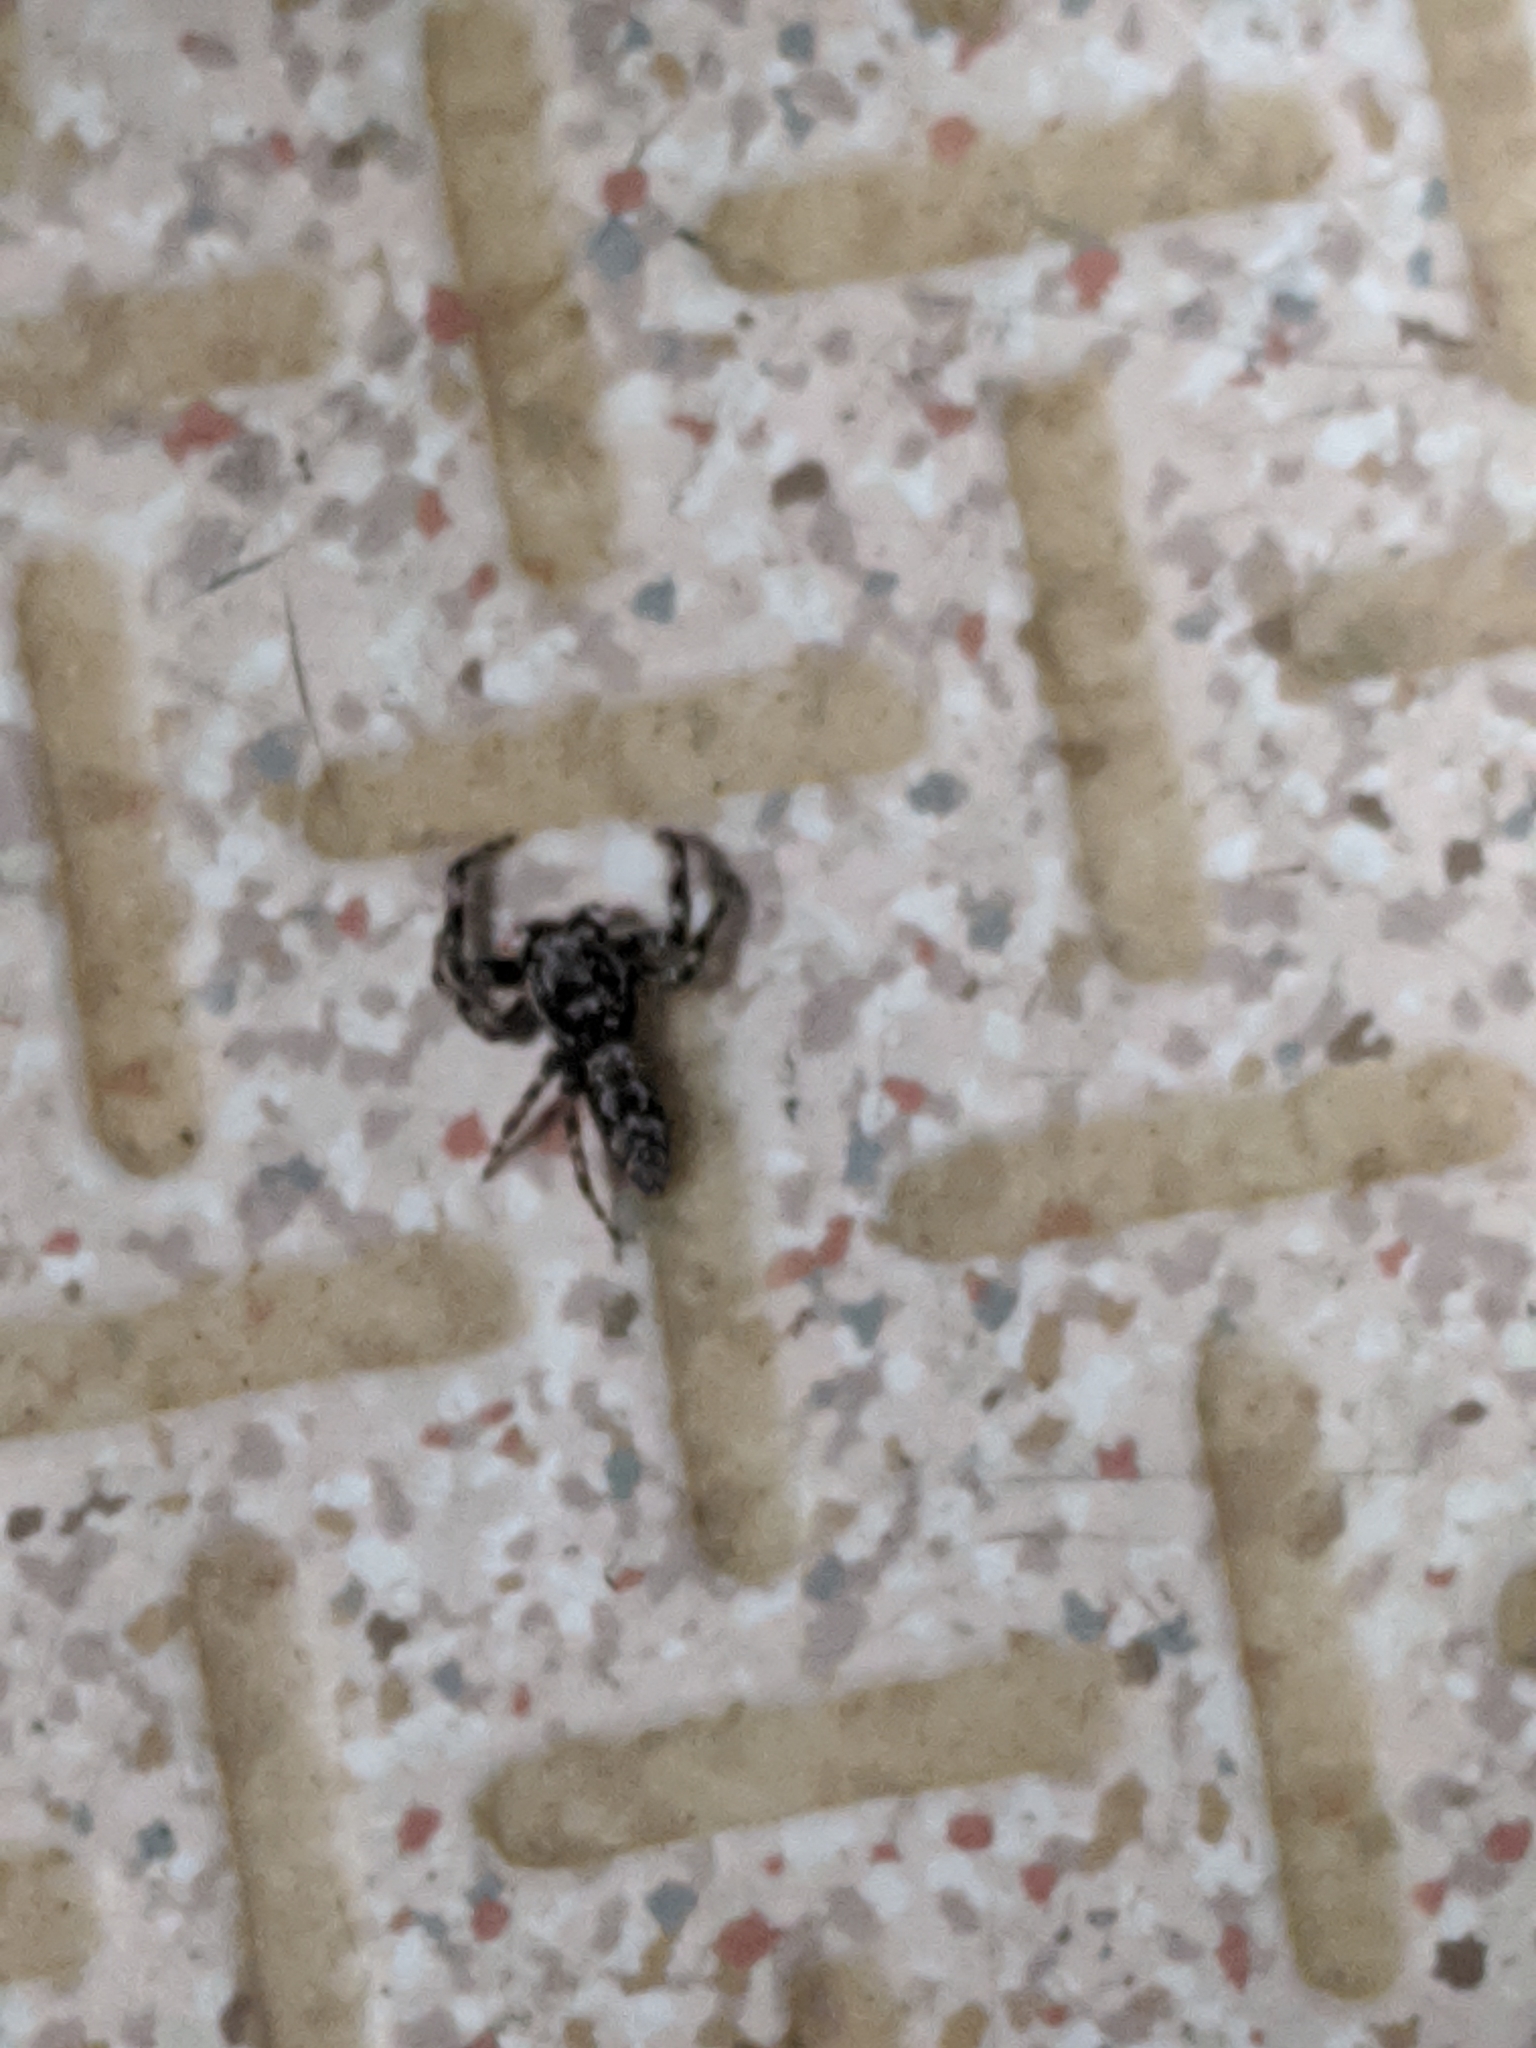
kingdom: Animalia
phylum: Arthropoda
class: Arachnida
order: Araneae
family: Salticidae
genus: Platycryptus
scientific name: Platycryptus undatus
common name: Tan jumping spider
